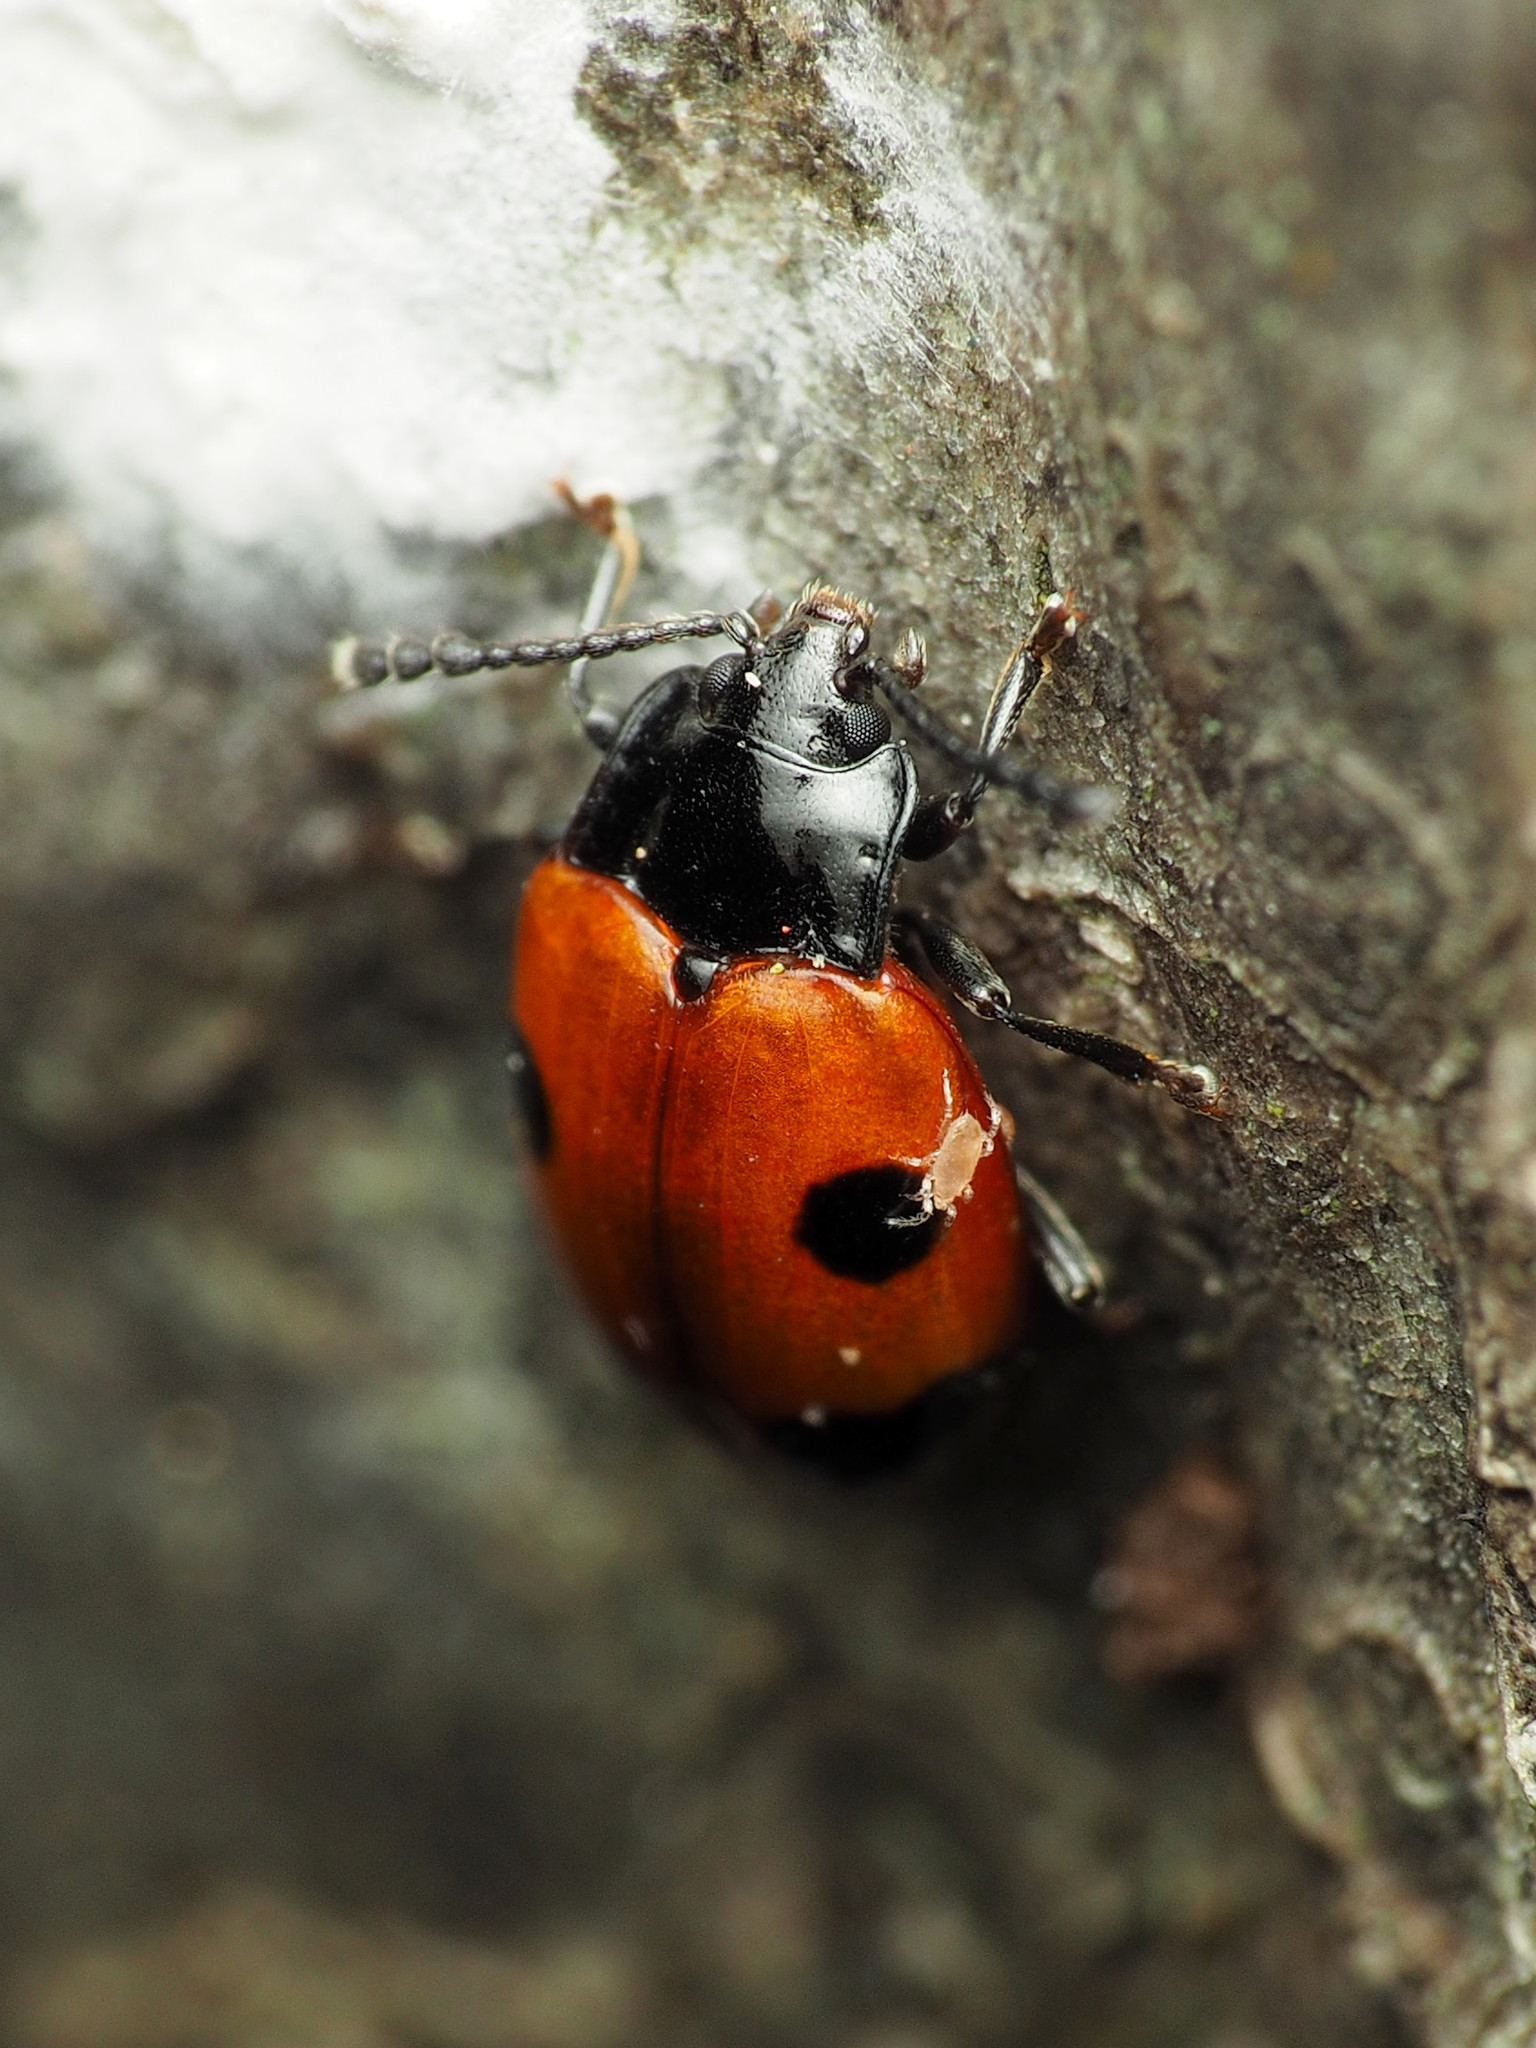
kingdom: Animalia
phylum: Arthropoda
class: Insecta
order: Coleoptera
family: Endomychidae
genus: Endomychus
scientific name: Endomychus biguttatus
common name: Handsome fungus beetle
